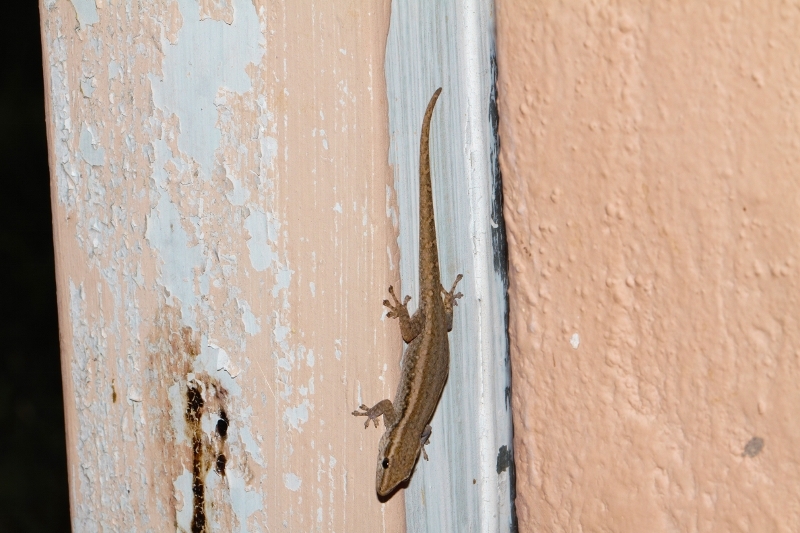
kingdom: Animalia
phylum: Chordata
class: Squamata
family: Gekkonidae
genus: Lygodactylus
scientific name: Lygodactylus capensis
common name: Cape dwarf gecko
